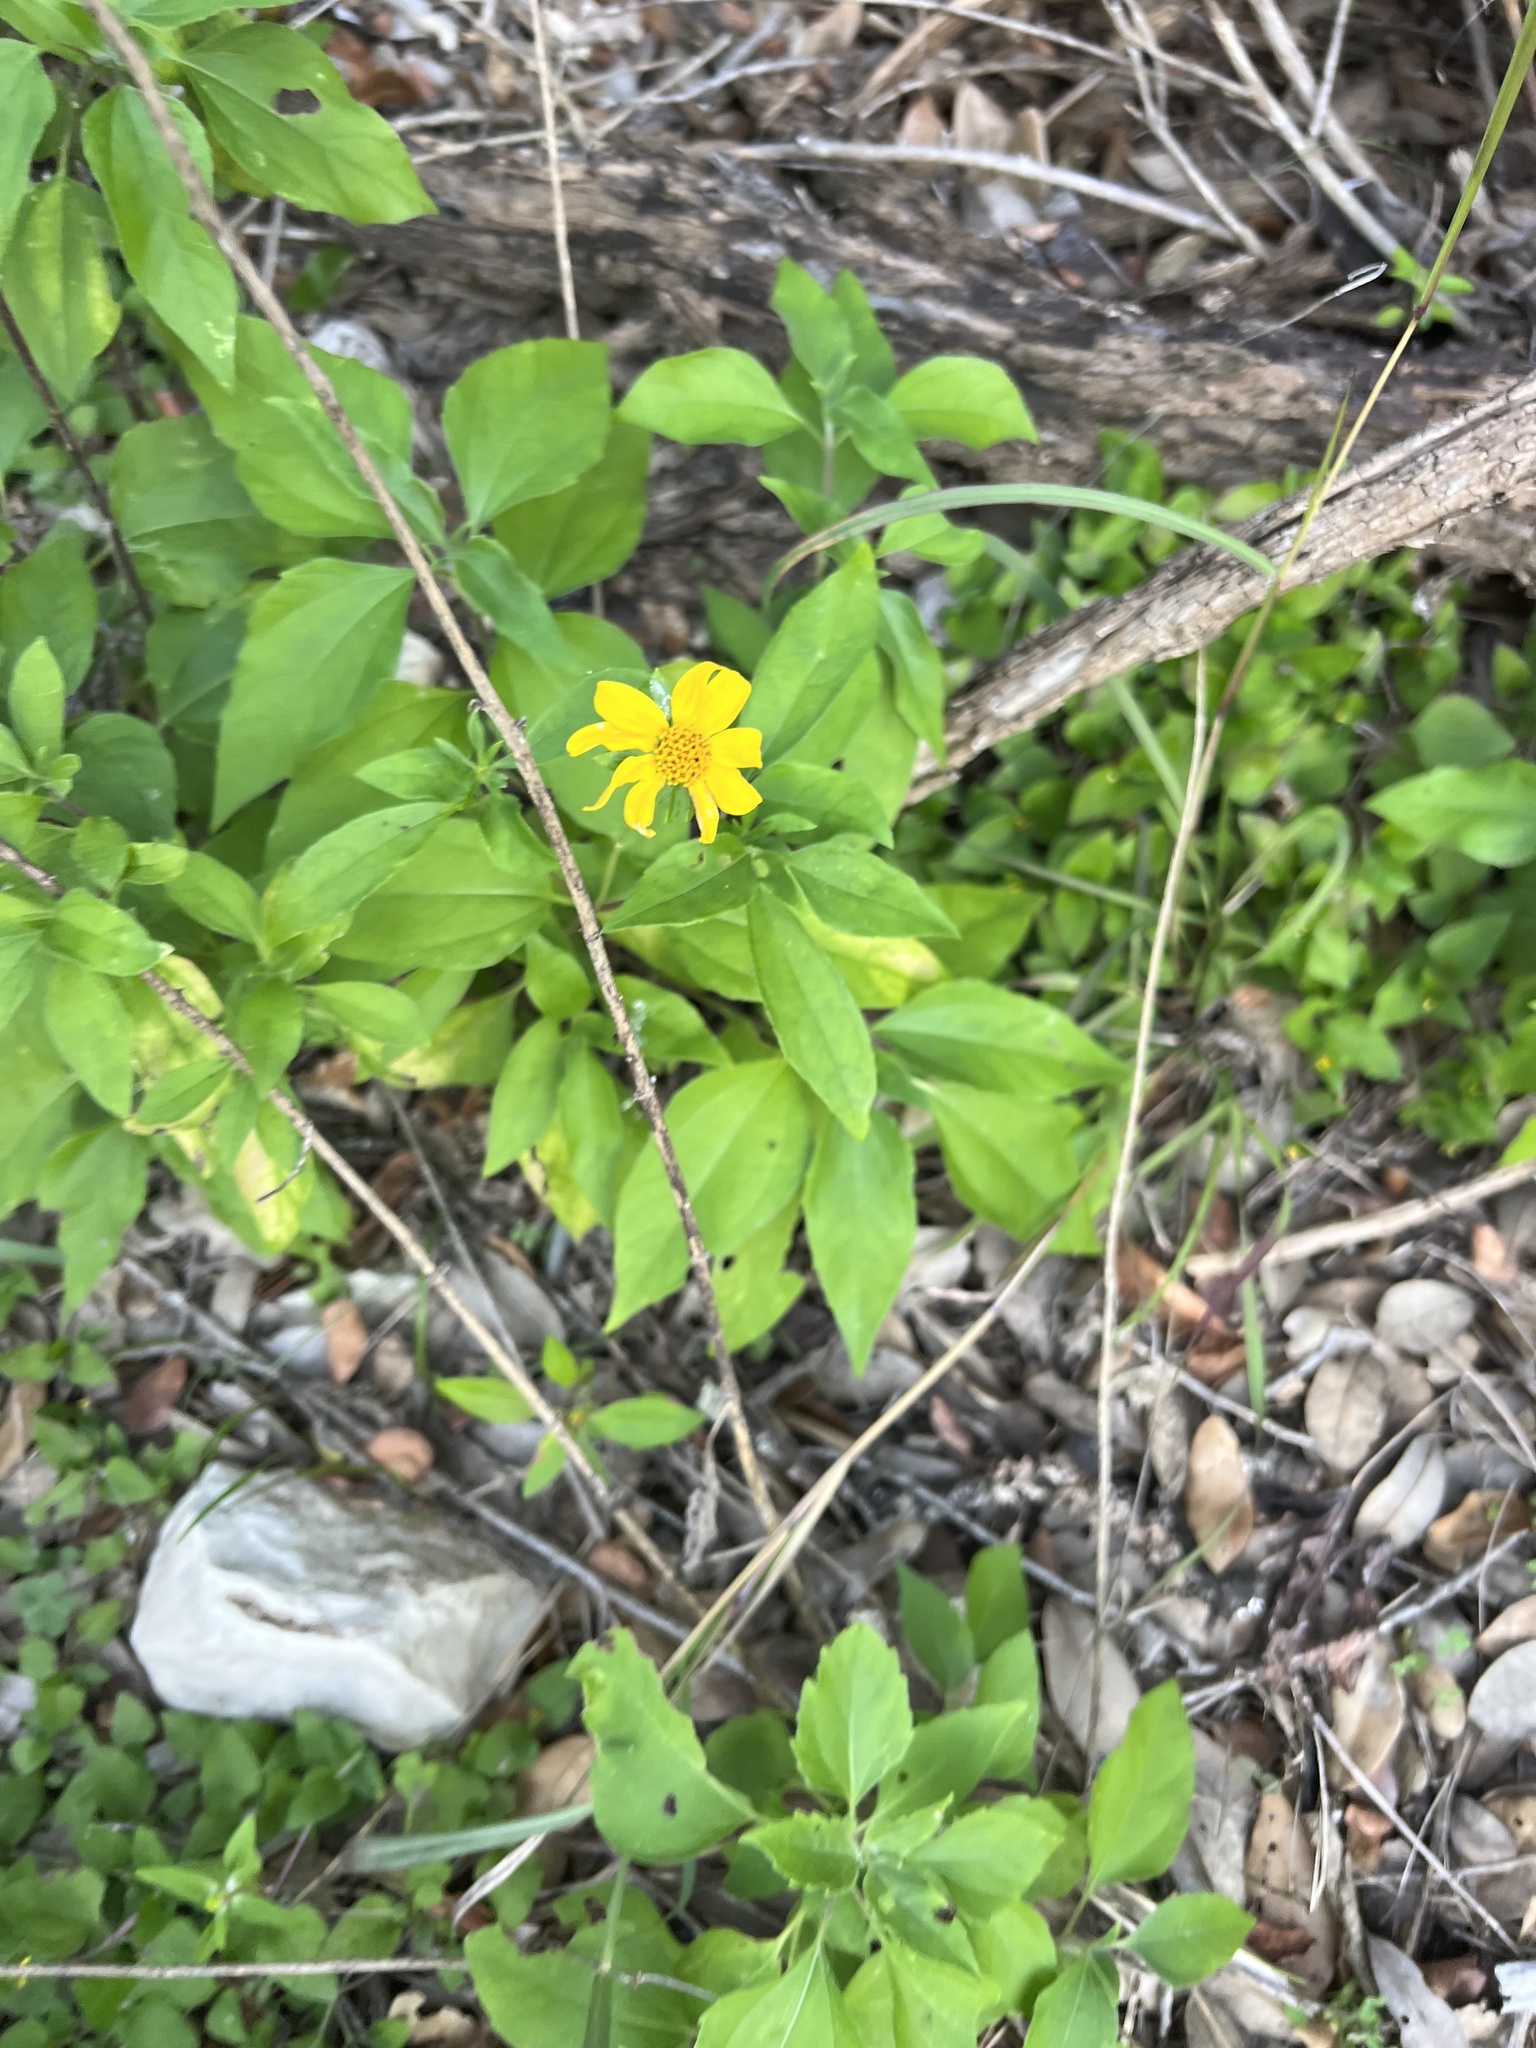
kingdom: Plantae
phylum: Tracheophyta
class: Magnoliopsida
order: Asterales
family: Asteraceae
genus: Viguiera
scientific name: Viguiera dentata
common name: Toothleaf
